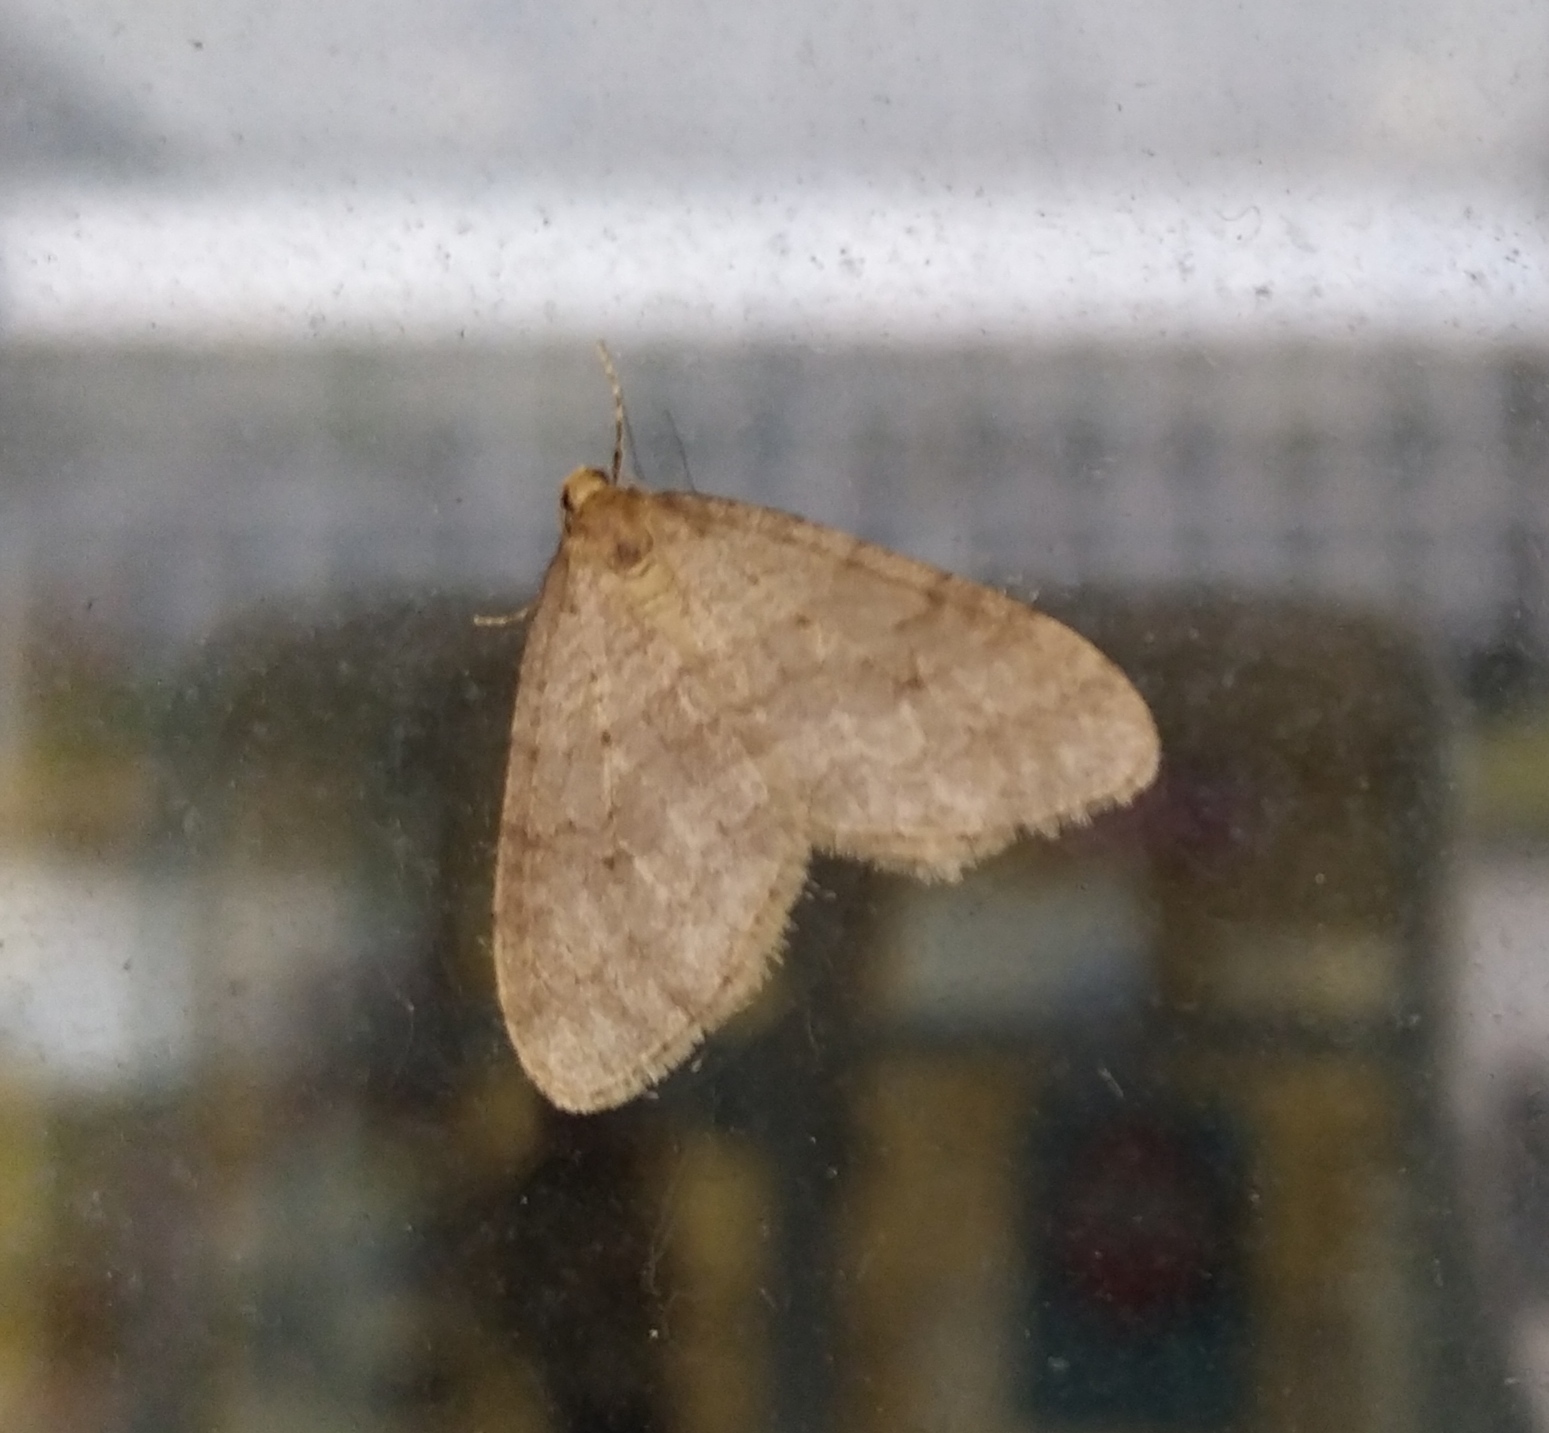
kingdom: Animalia
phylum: Arthropoda
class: Insecta
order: Lepidoptera
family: Geometridae
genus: Operophtera
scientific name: Operophtera brumata
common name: Winter moth
